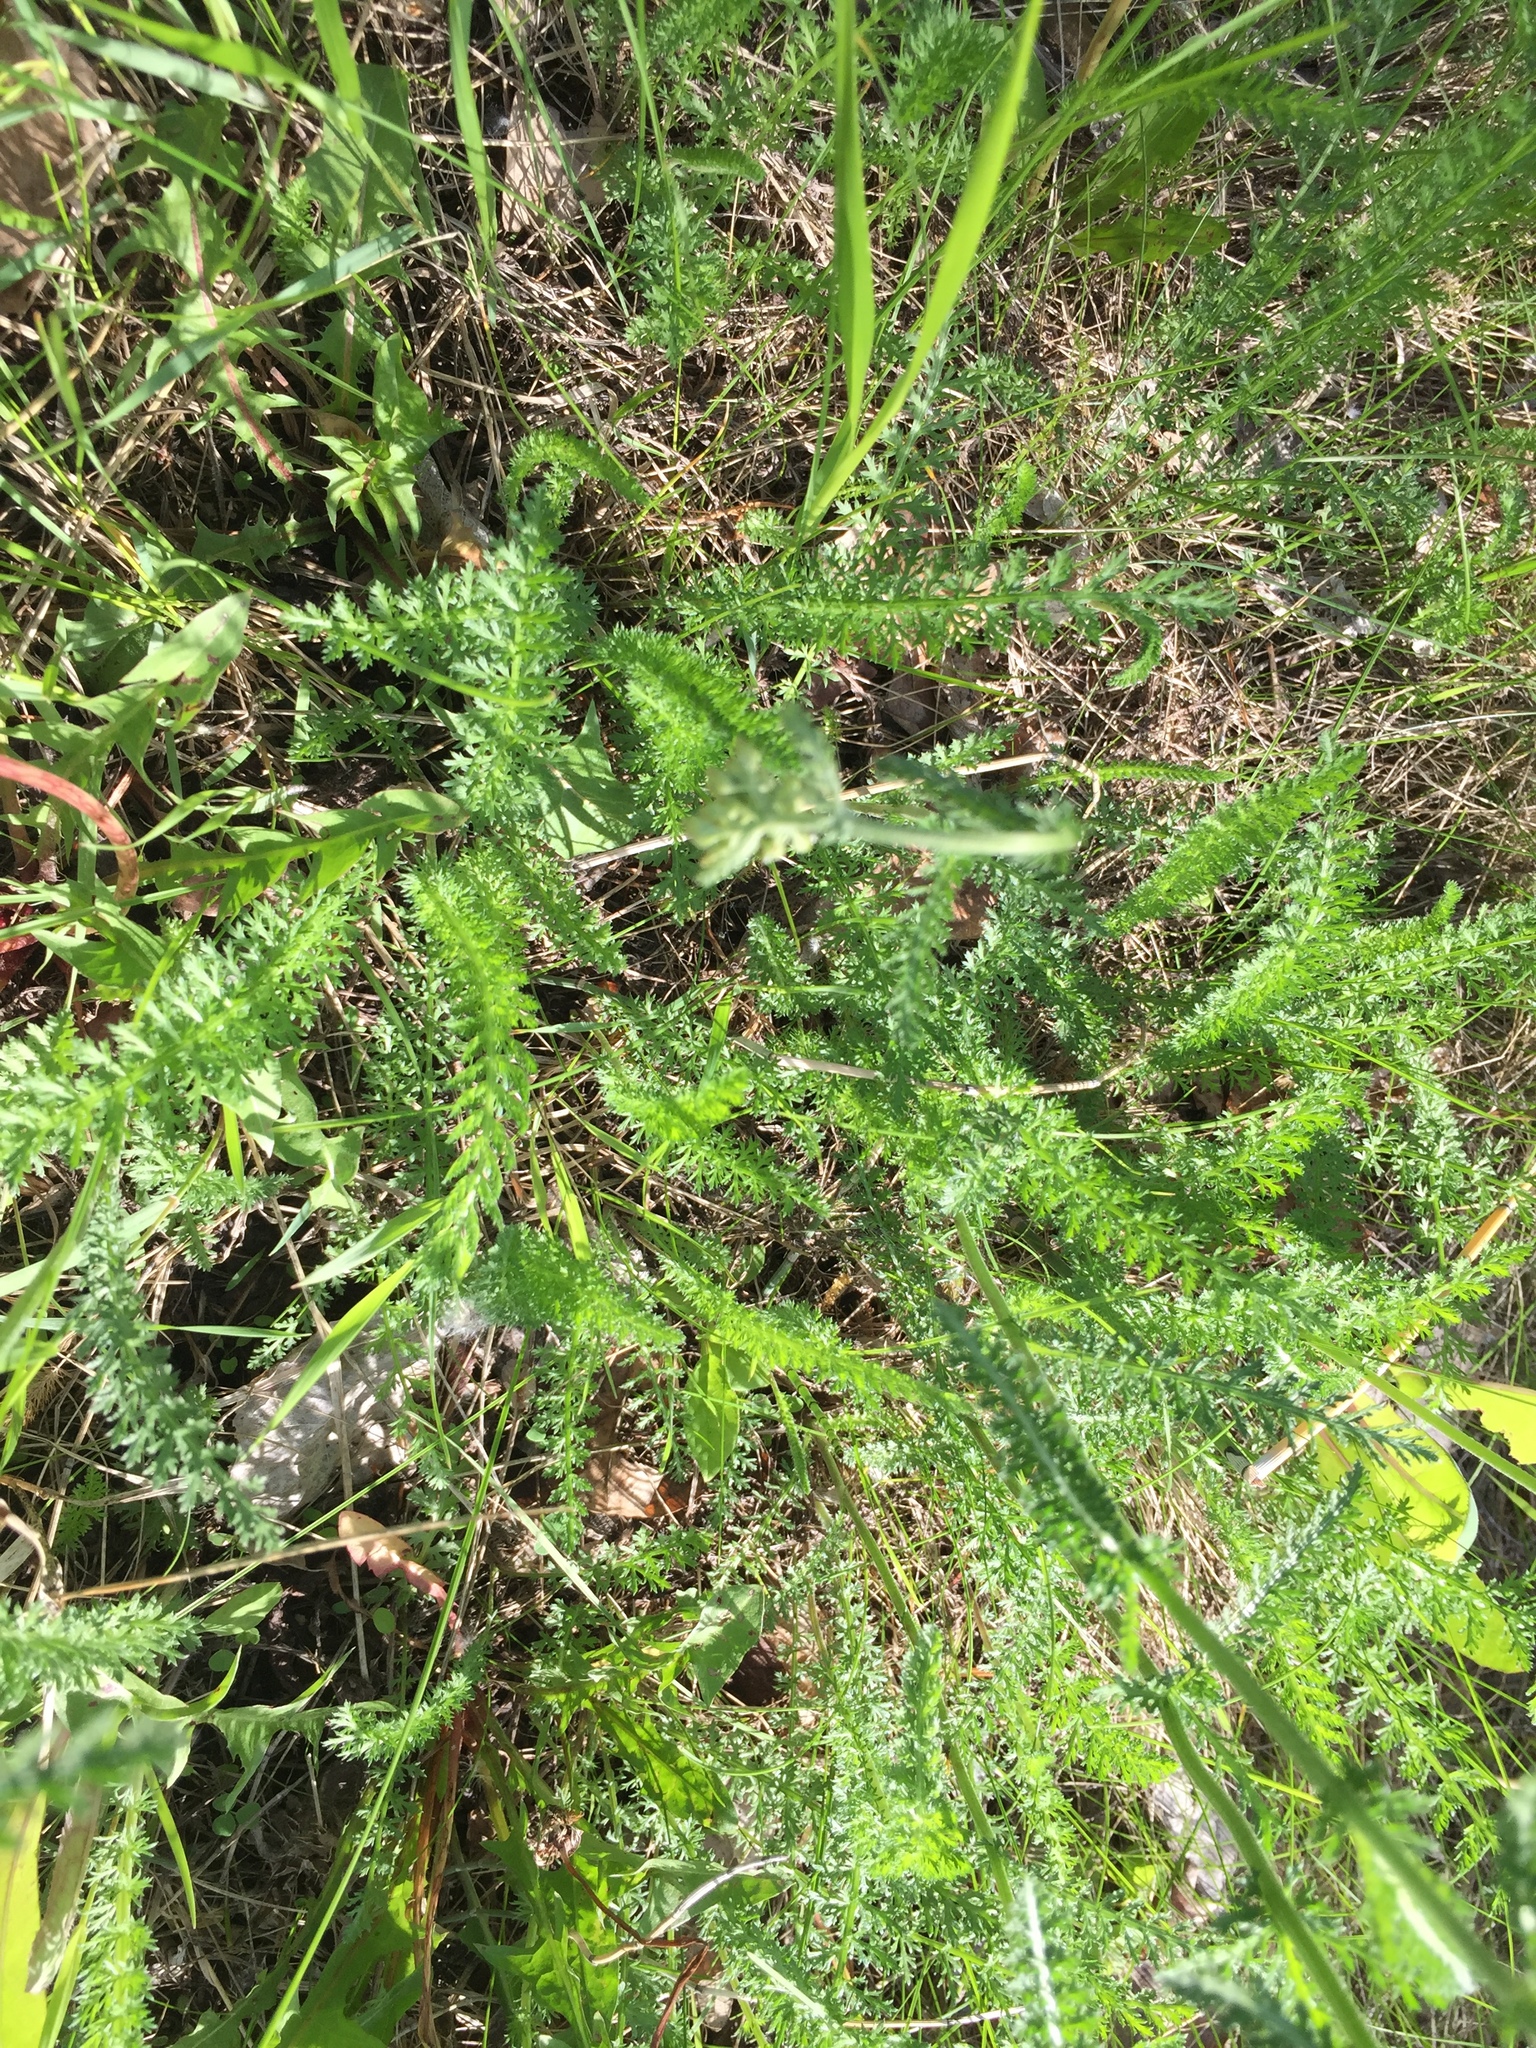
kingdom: Plantae
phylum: Tracheophyta
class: Magnoliopsida
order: Asterales
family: Asteraceae
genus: Achillea
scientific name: Achillea millefolium
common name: Yarrow
